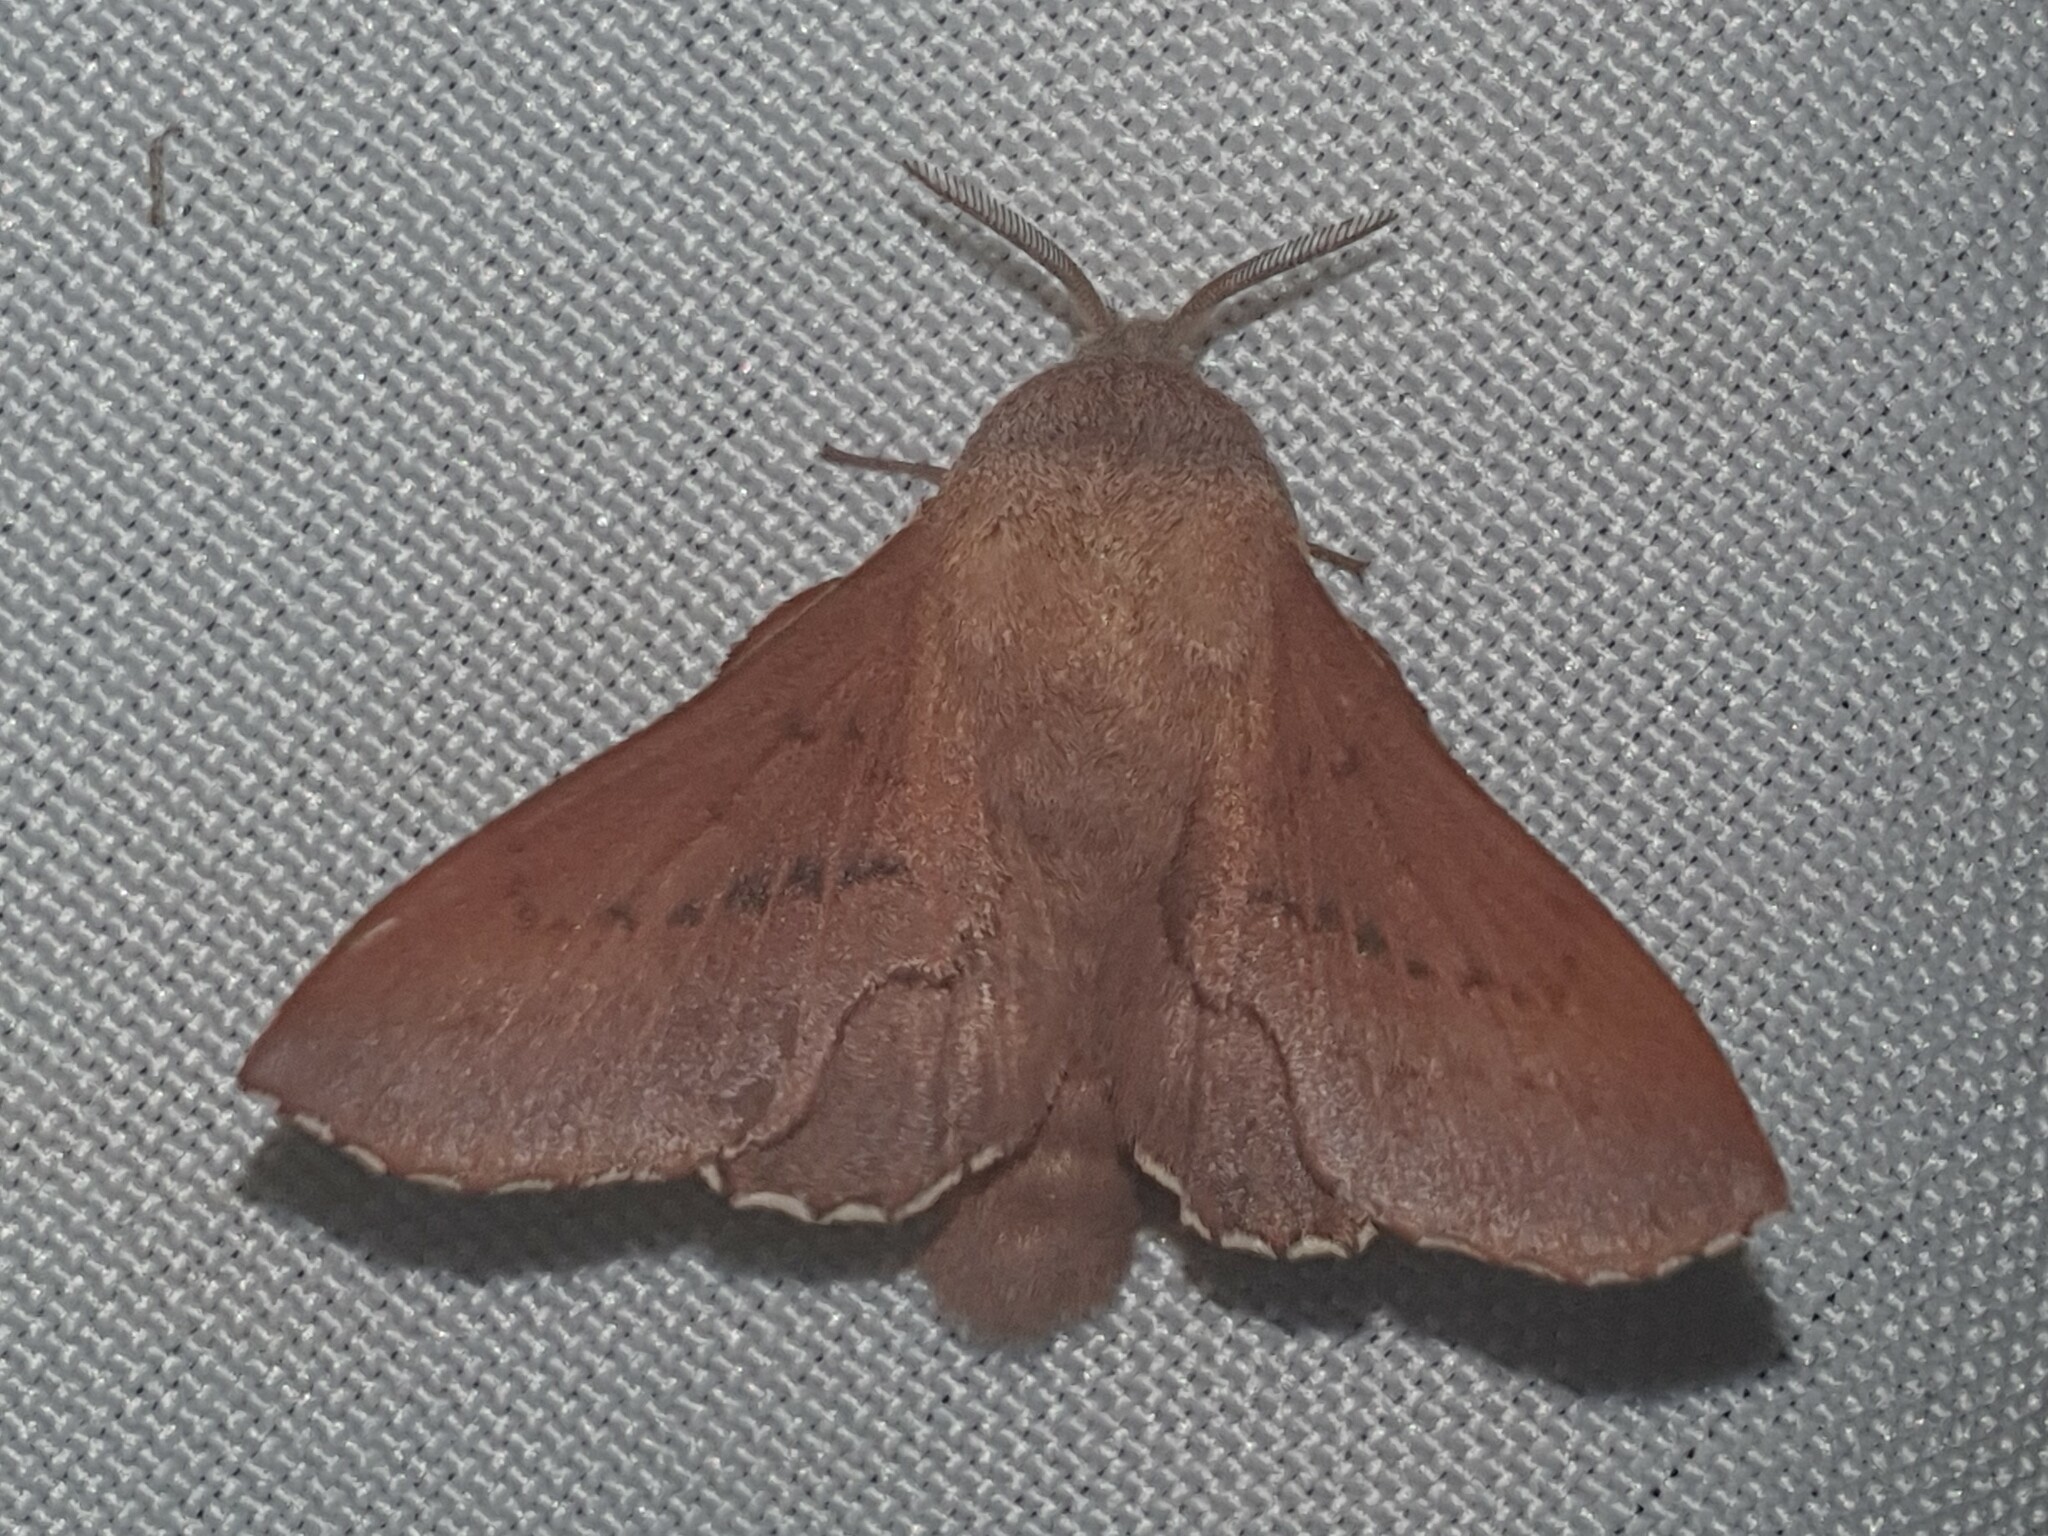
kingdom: Animalia
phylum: Arthropoda
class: Insecta
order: Lepidoptera
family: Lasiocampidae
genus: Phyllodesma
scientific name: Phyllodesma tremulifolia
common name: Aspen lappet
